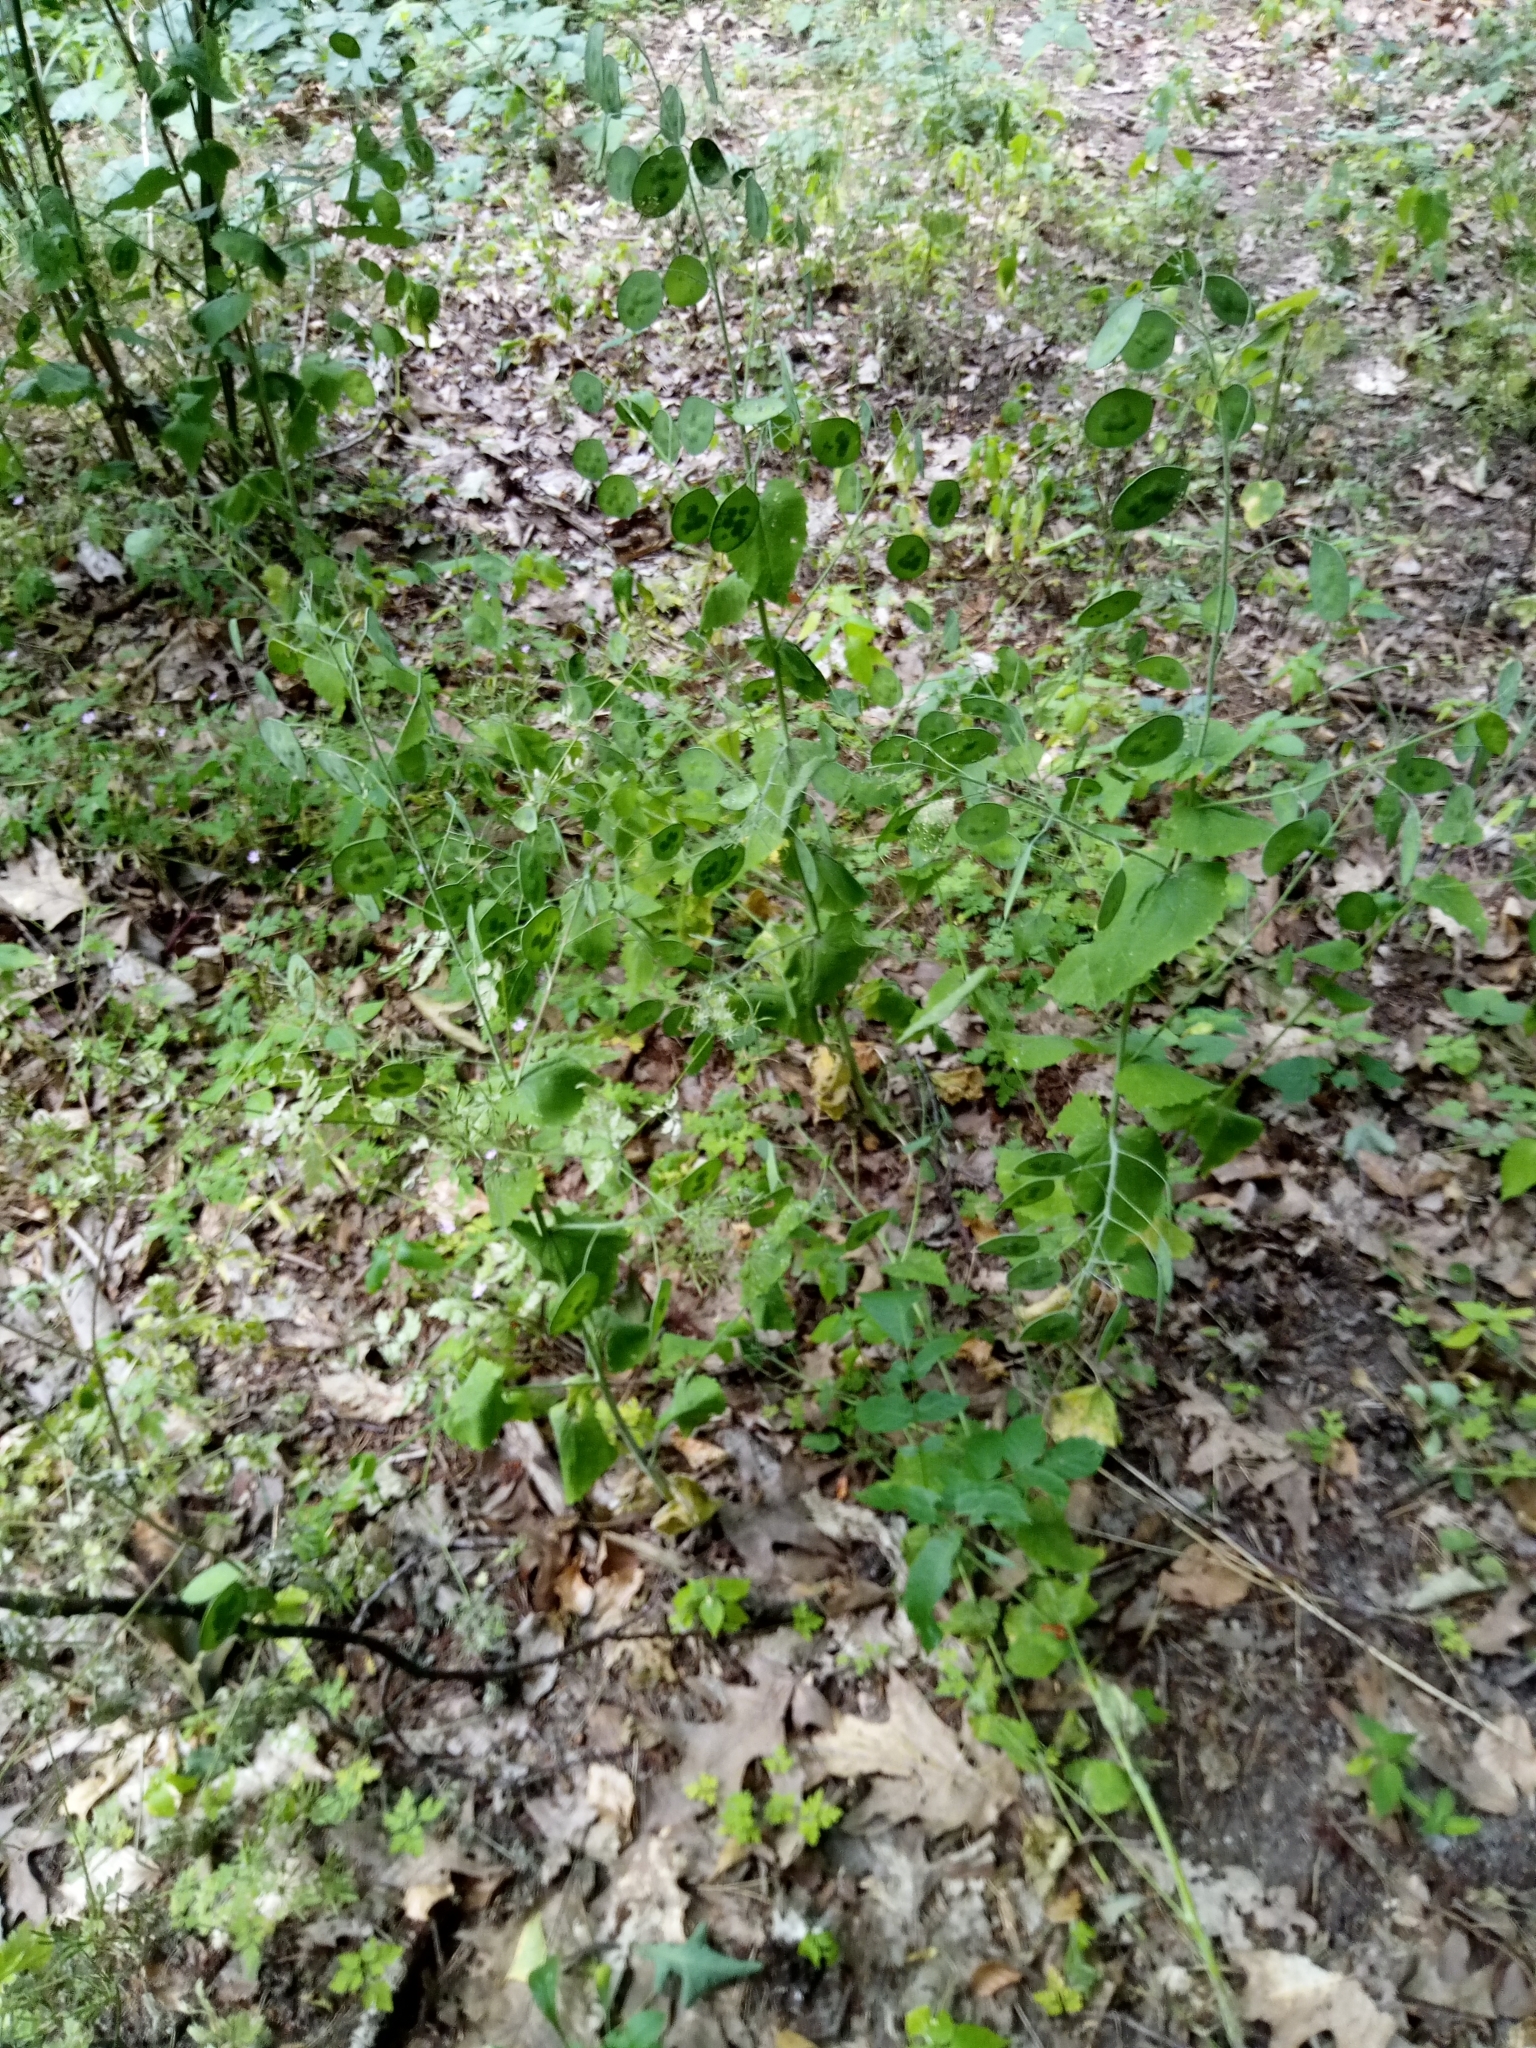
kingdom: Plantae
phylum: Tracheophyta
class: Magnoliopsida
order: Brassicales
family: Brassicaceae
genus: Lunaria
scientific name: Lunaria rediviva
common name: Perennial honesty
